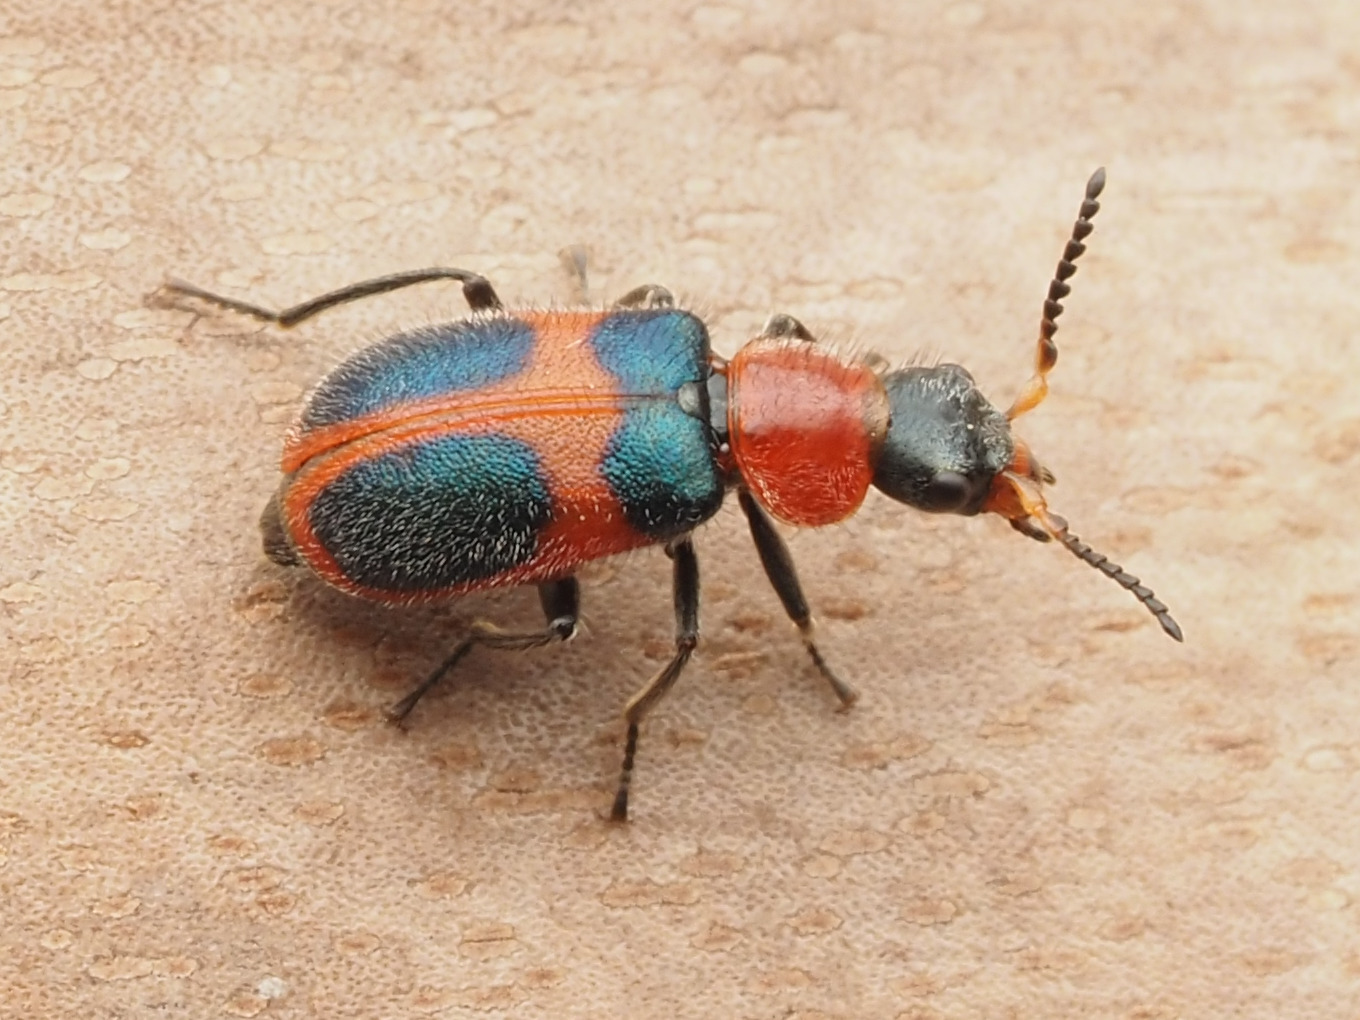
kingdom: Animalia
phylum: Arthropoda
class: Insecta
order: Coleoptera
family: Melyridae
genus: Collops
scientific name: Collops quadrimaculatus
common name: Four-spotted collops
